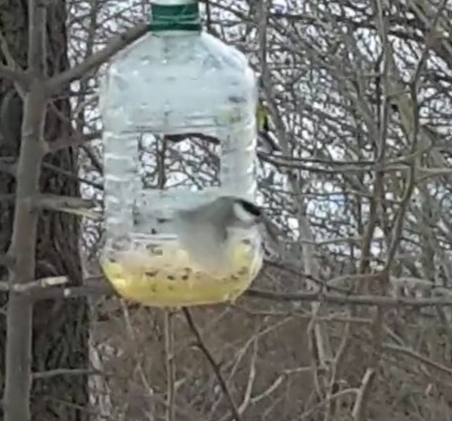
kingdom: Animalia
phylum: Chordata
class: Aves
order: Passeriformes
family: Paridae
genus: Poecile
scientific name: Poecile montanus
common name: Willow tit
